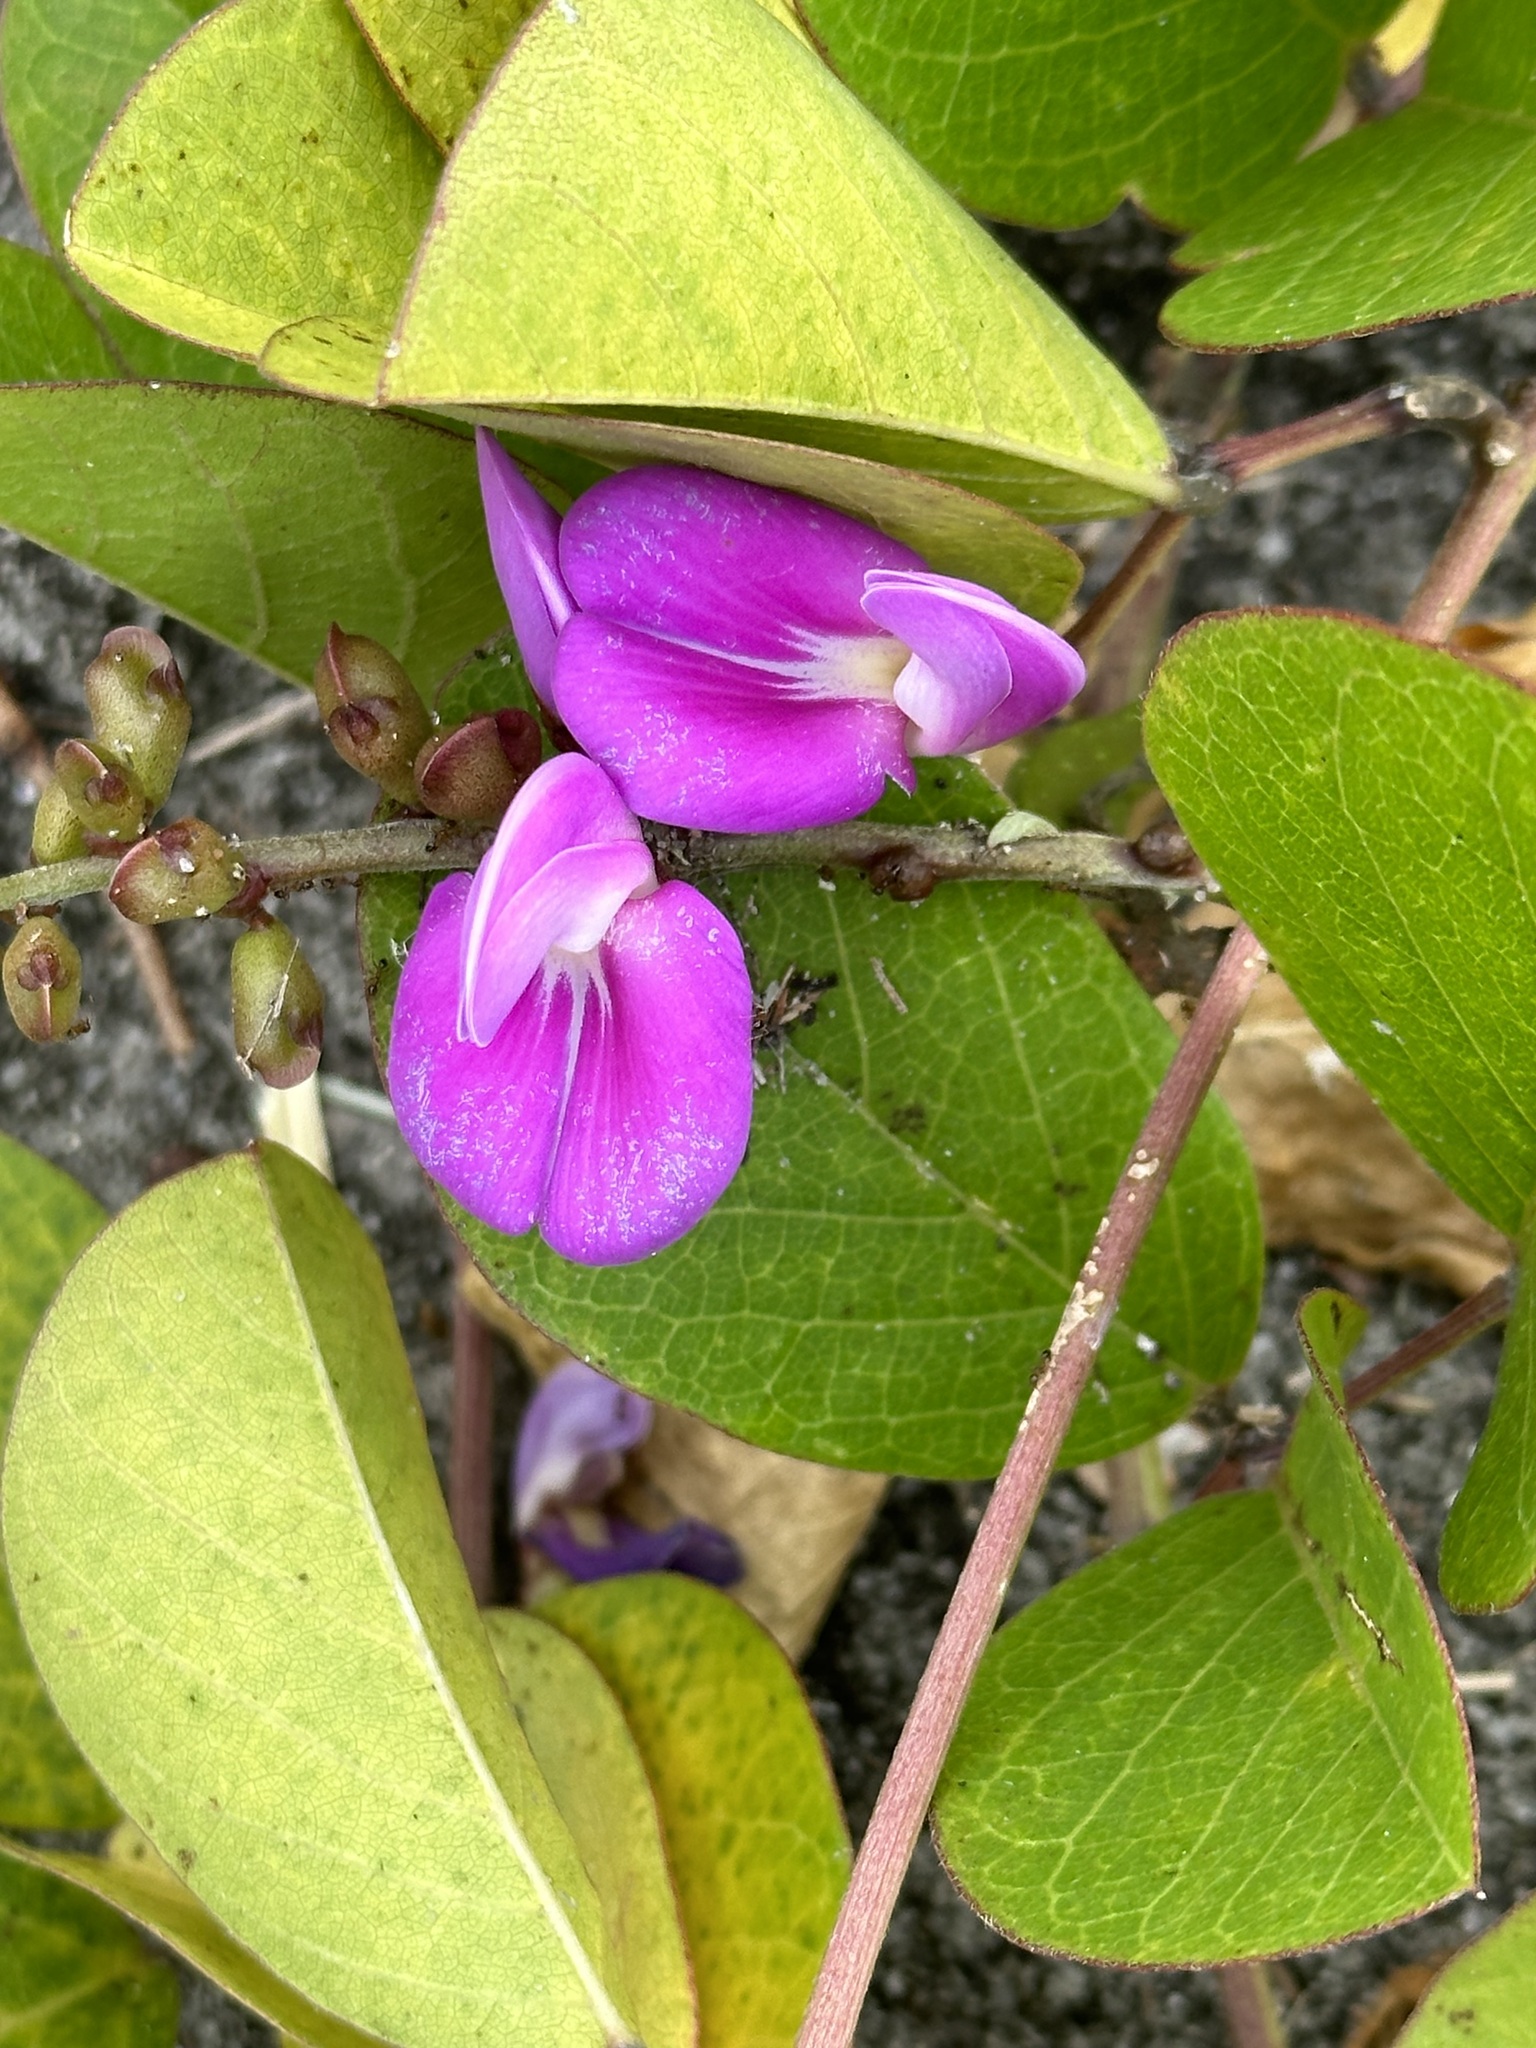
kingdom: Plantae
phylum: Tracheophyta
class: Magnoliopsida
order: Fabales
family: Fabaceae
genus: Canavalia
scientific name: Canavalia rosea
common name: Beach-bean
